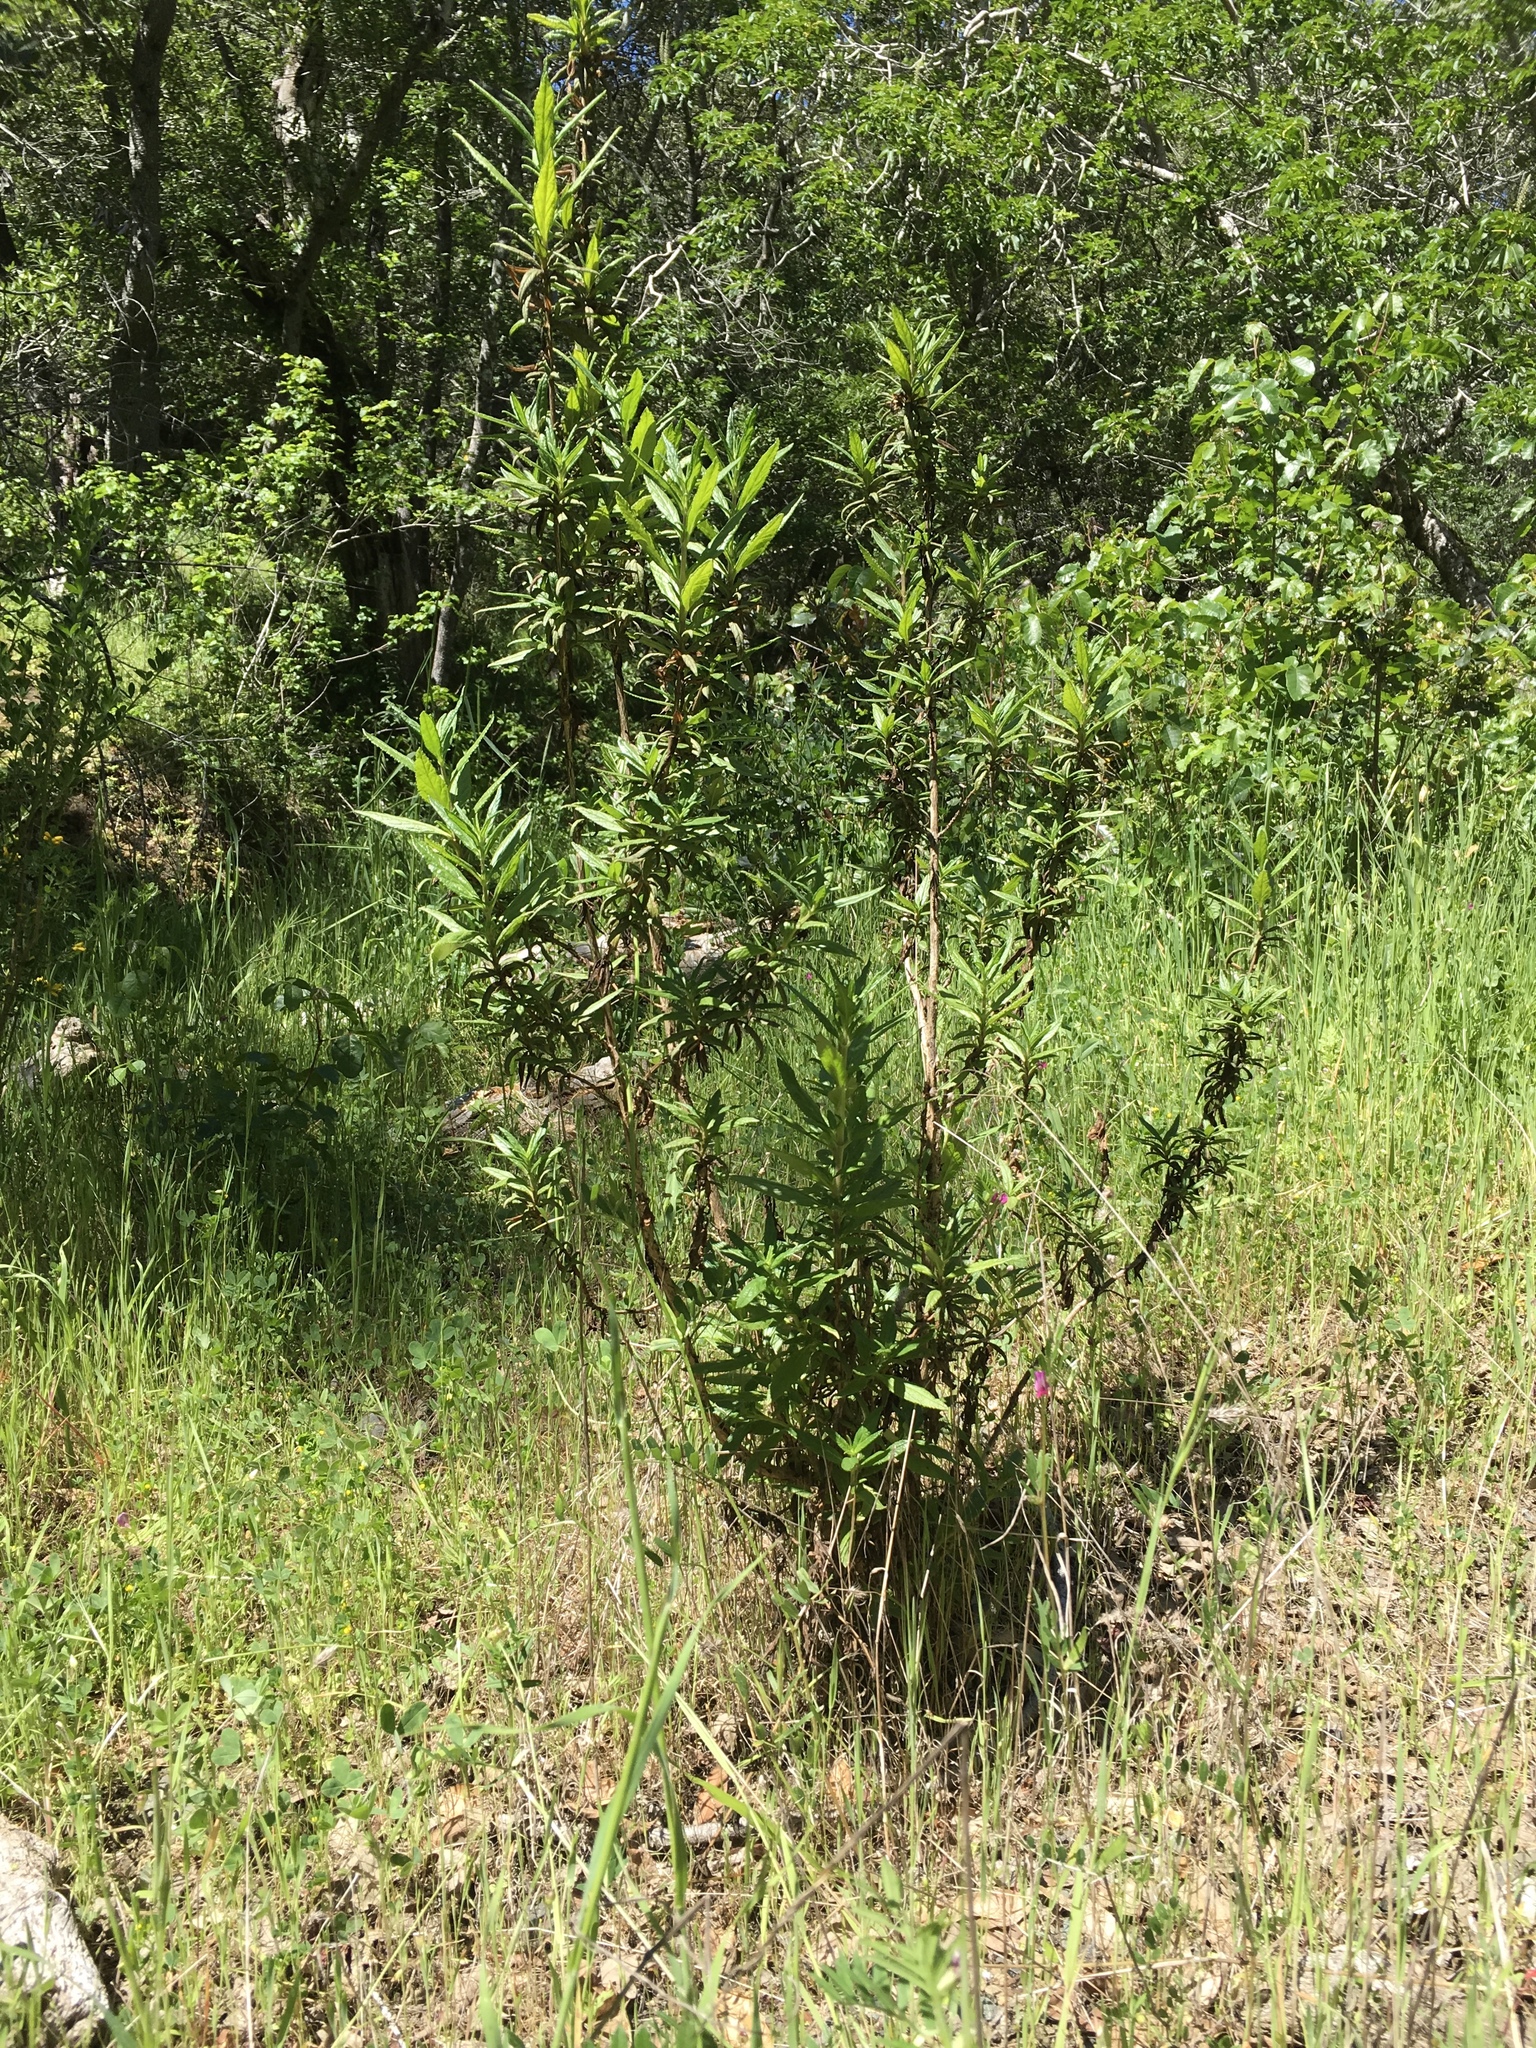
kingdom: Plantae
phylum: Tracheophyta
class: Magnoliopsida
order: Lamiales
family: Phrymaceae
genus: Diplacus
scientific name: Diplacus aurantiacus
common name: Bush monkey-flower
